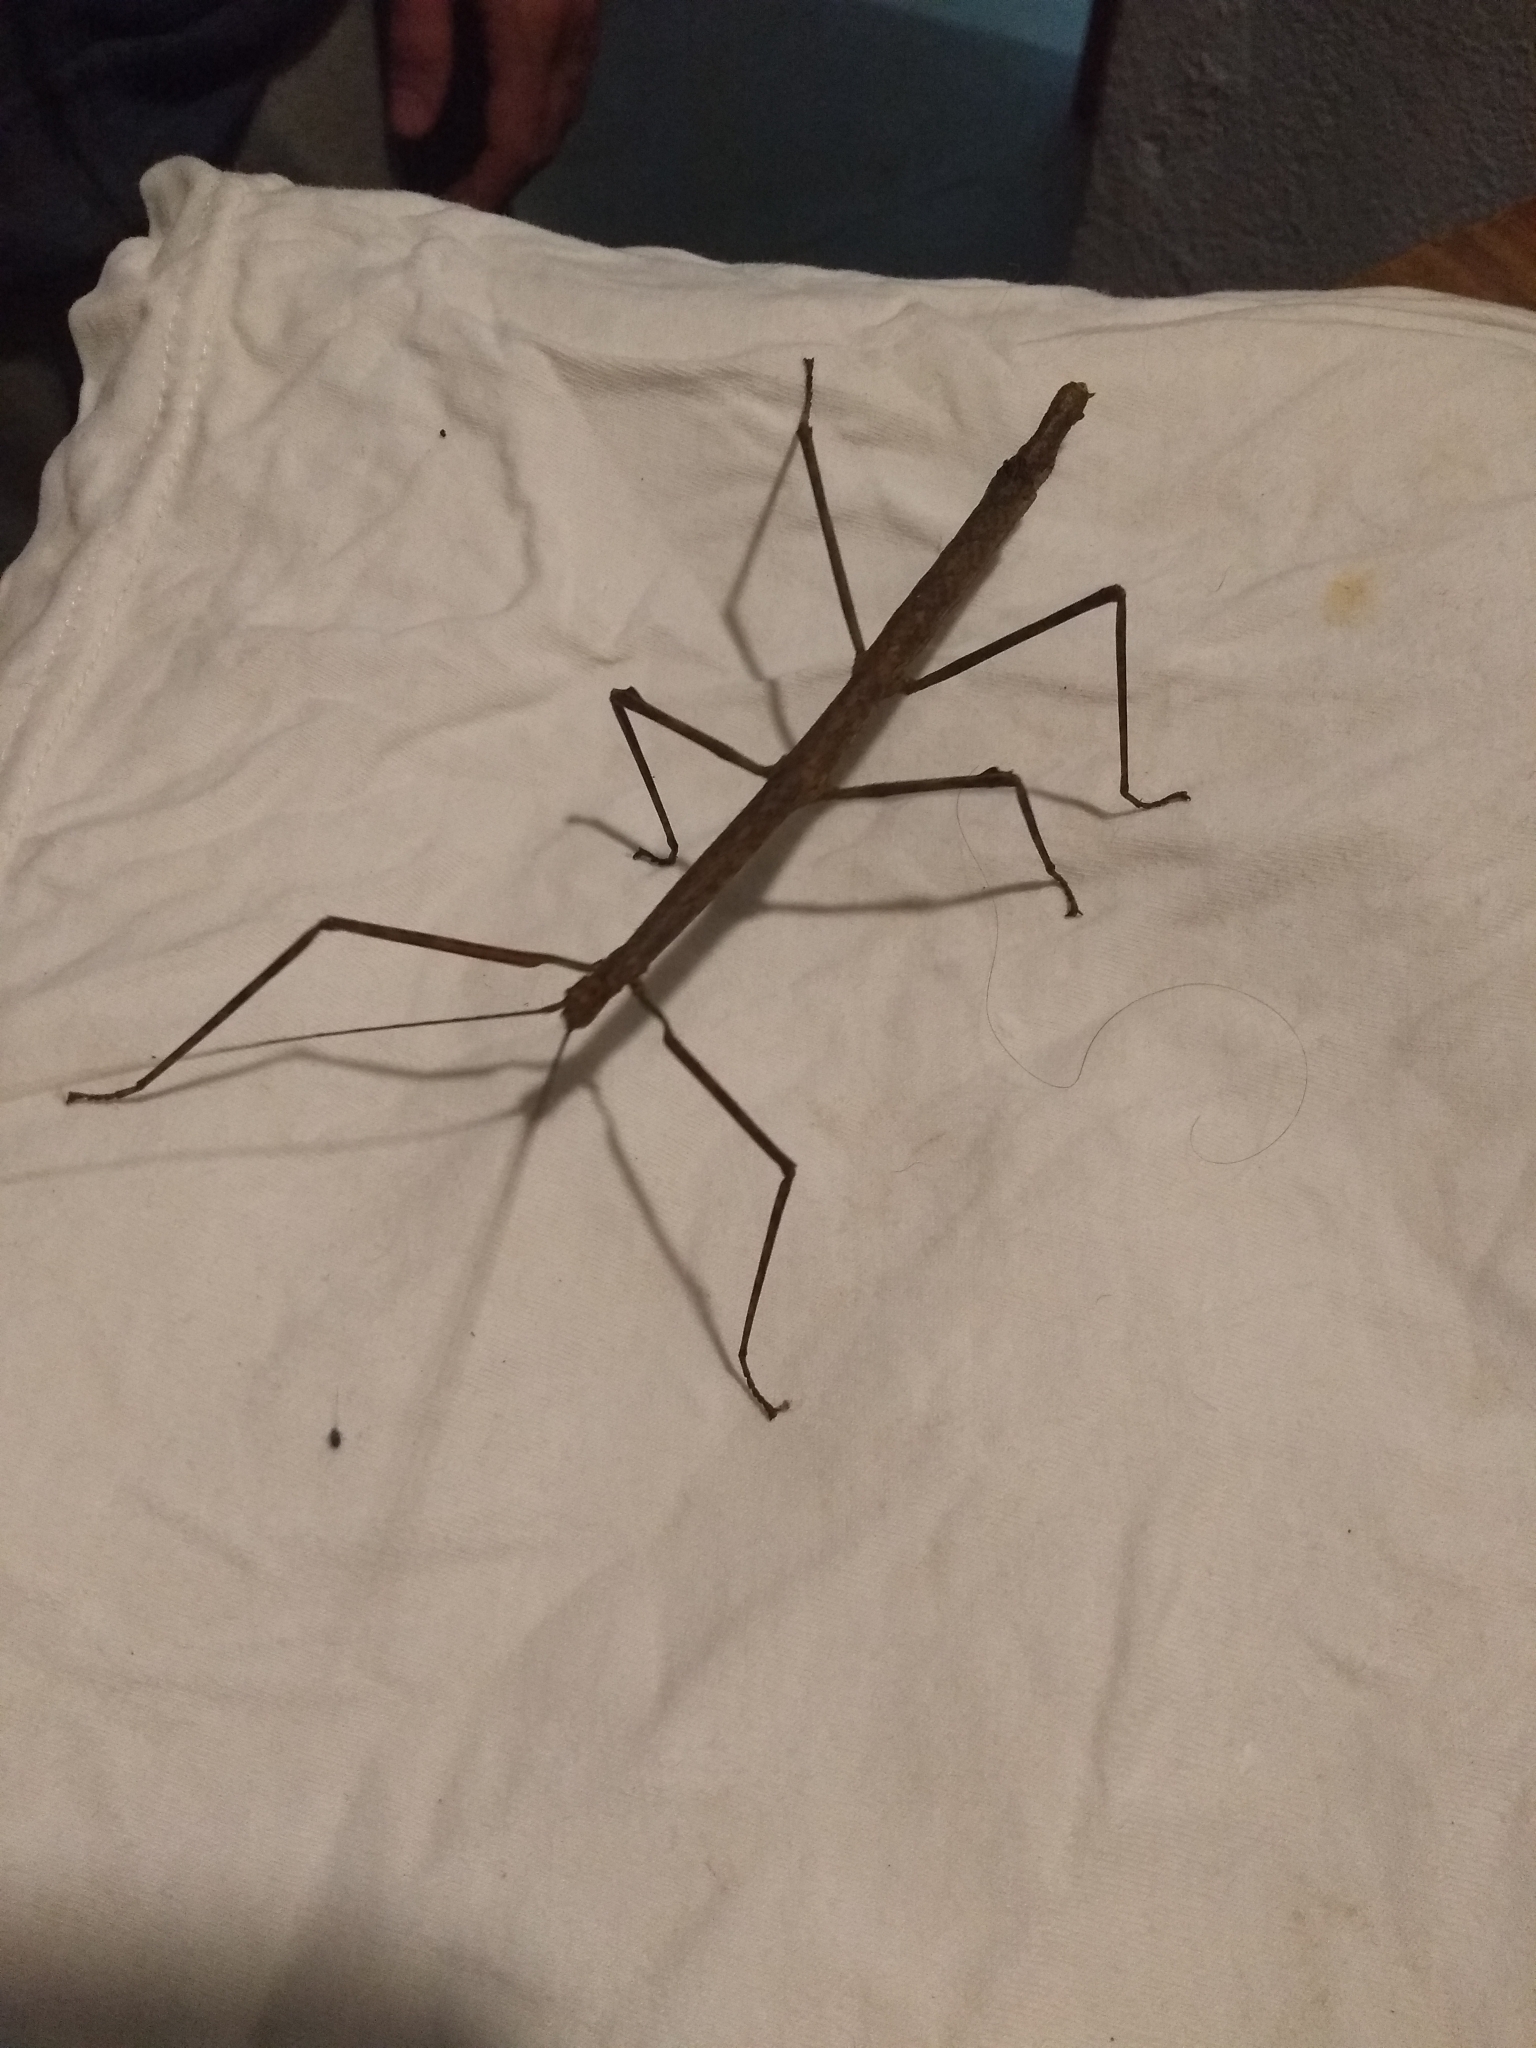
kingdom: Animalia
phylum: Arthropoda
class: Insecta
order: Phasmida
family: Heteronemiidae
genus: Canuleius
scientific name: Canuleius grandis
